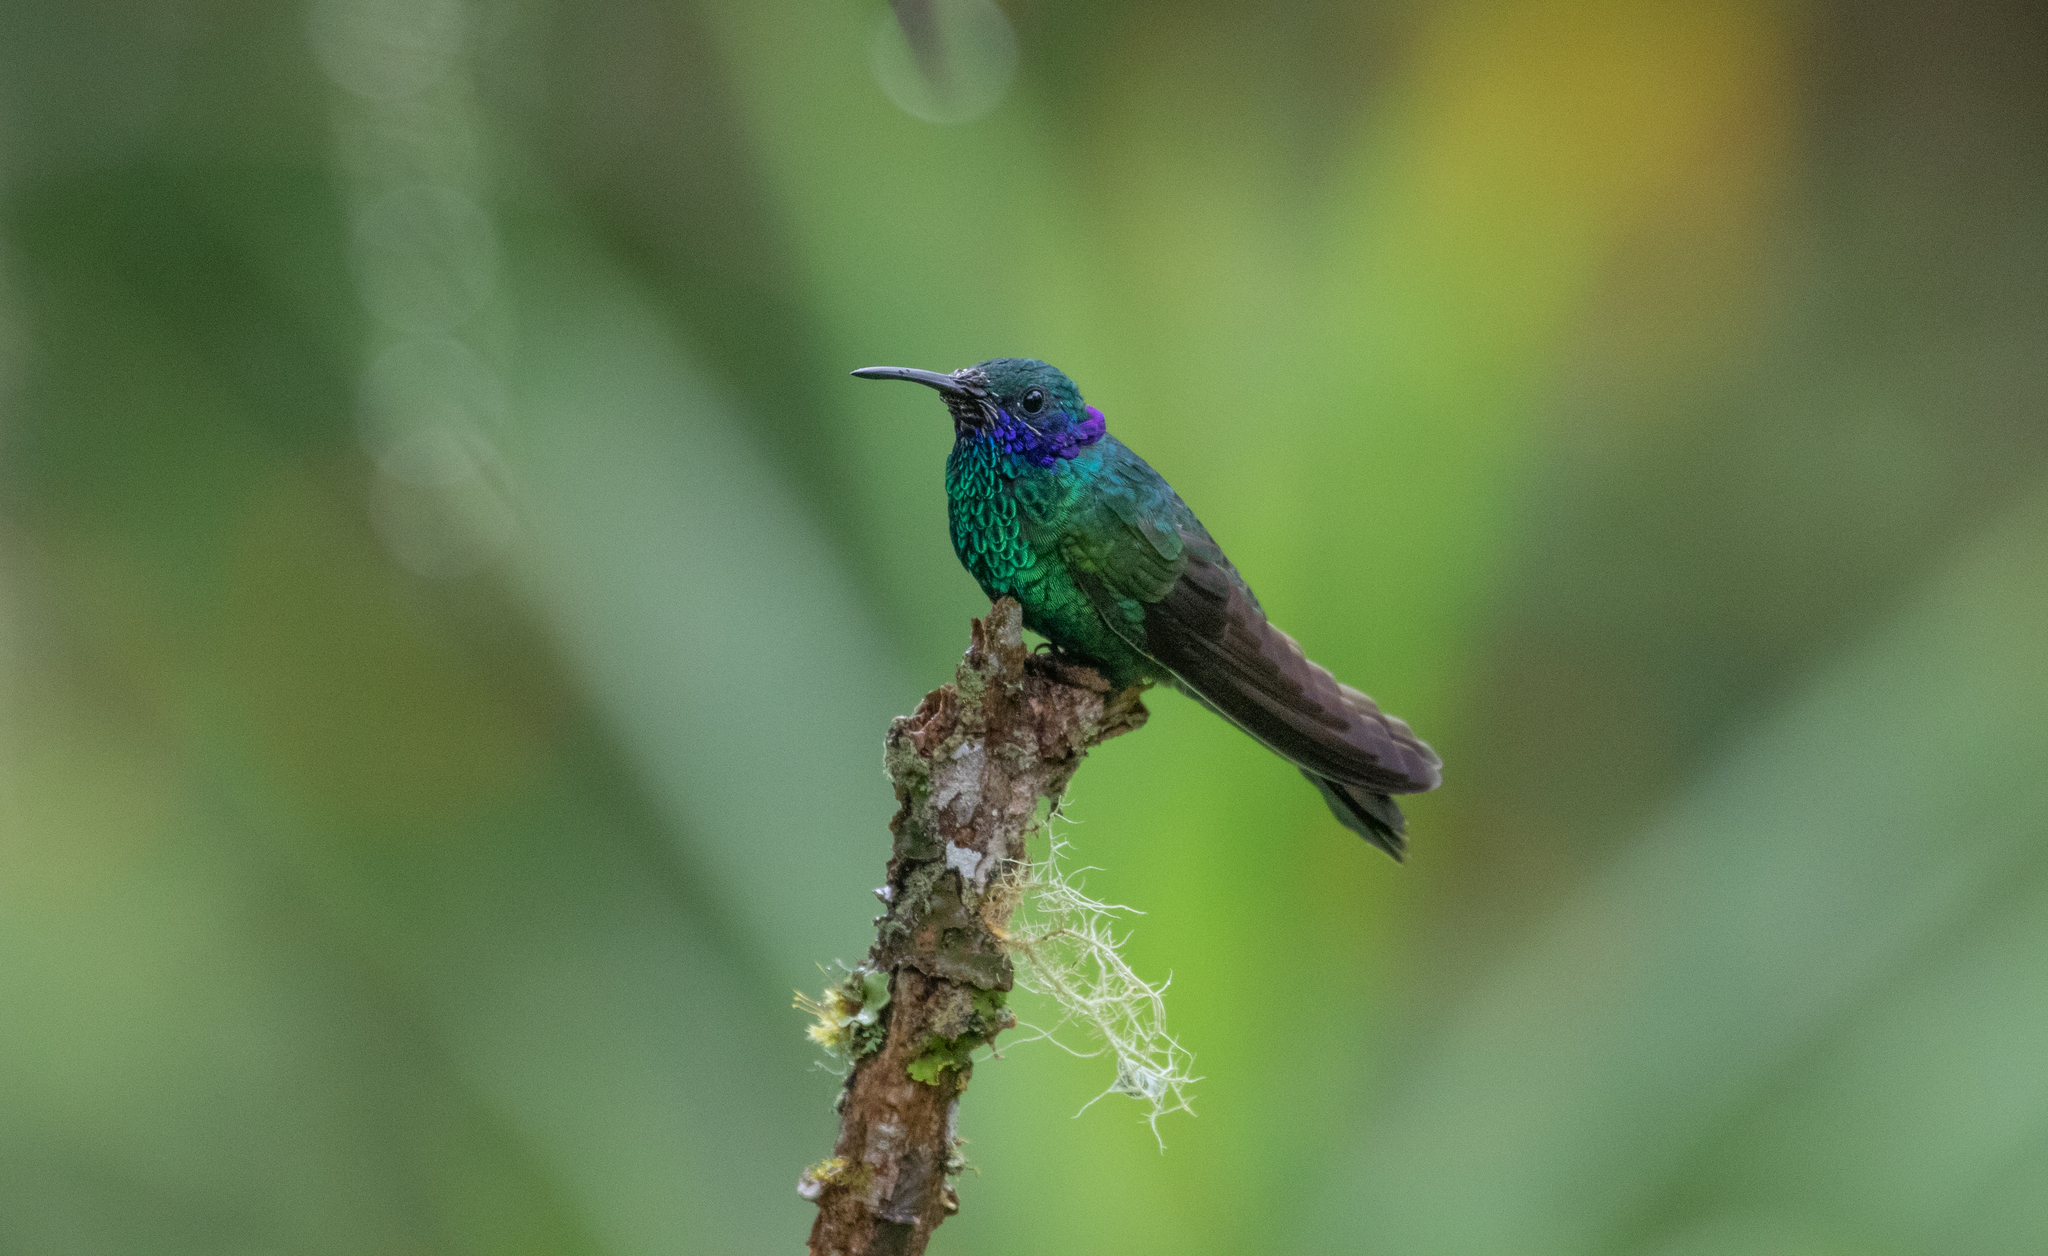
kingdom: Animalia
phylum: Chordata
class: Aves
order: Apodiformes
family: Trochilidae
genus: Colibri
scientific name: Colibri coruscans
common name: Sparkling violetear
